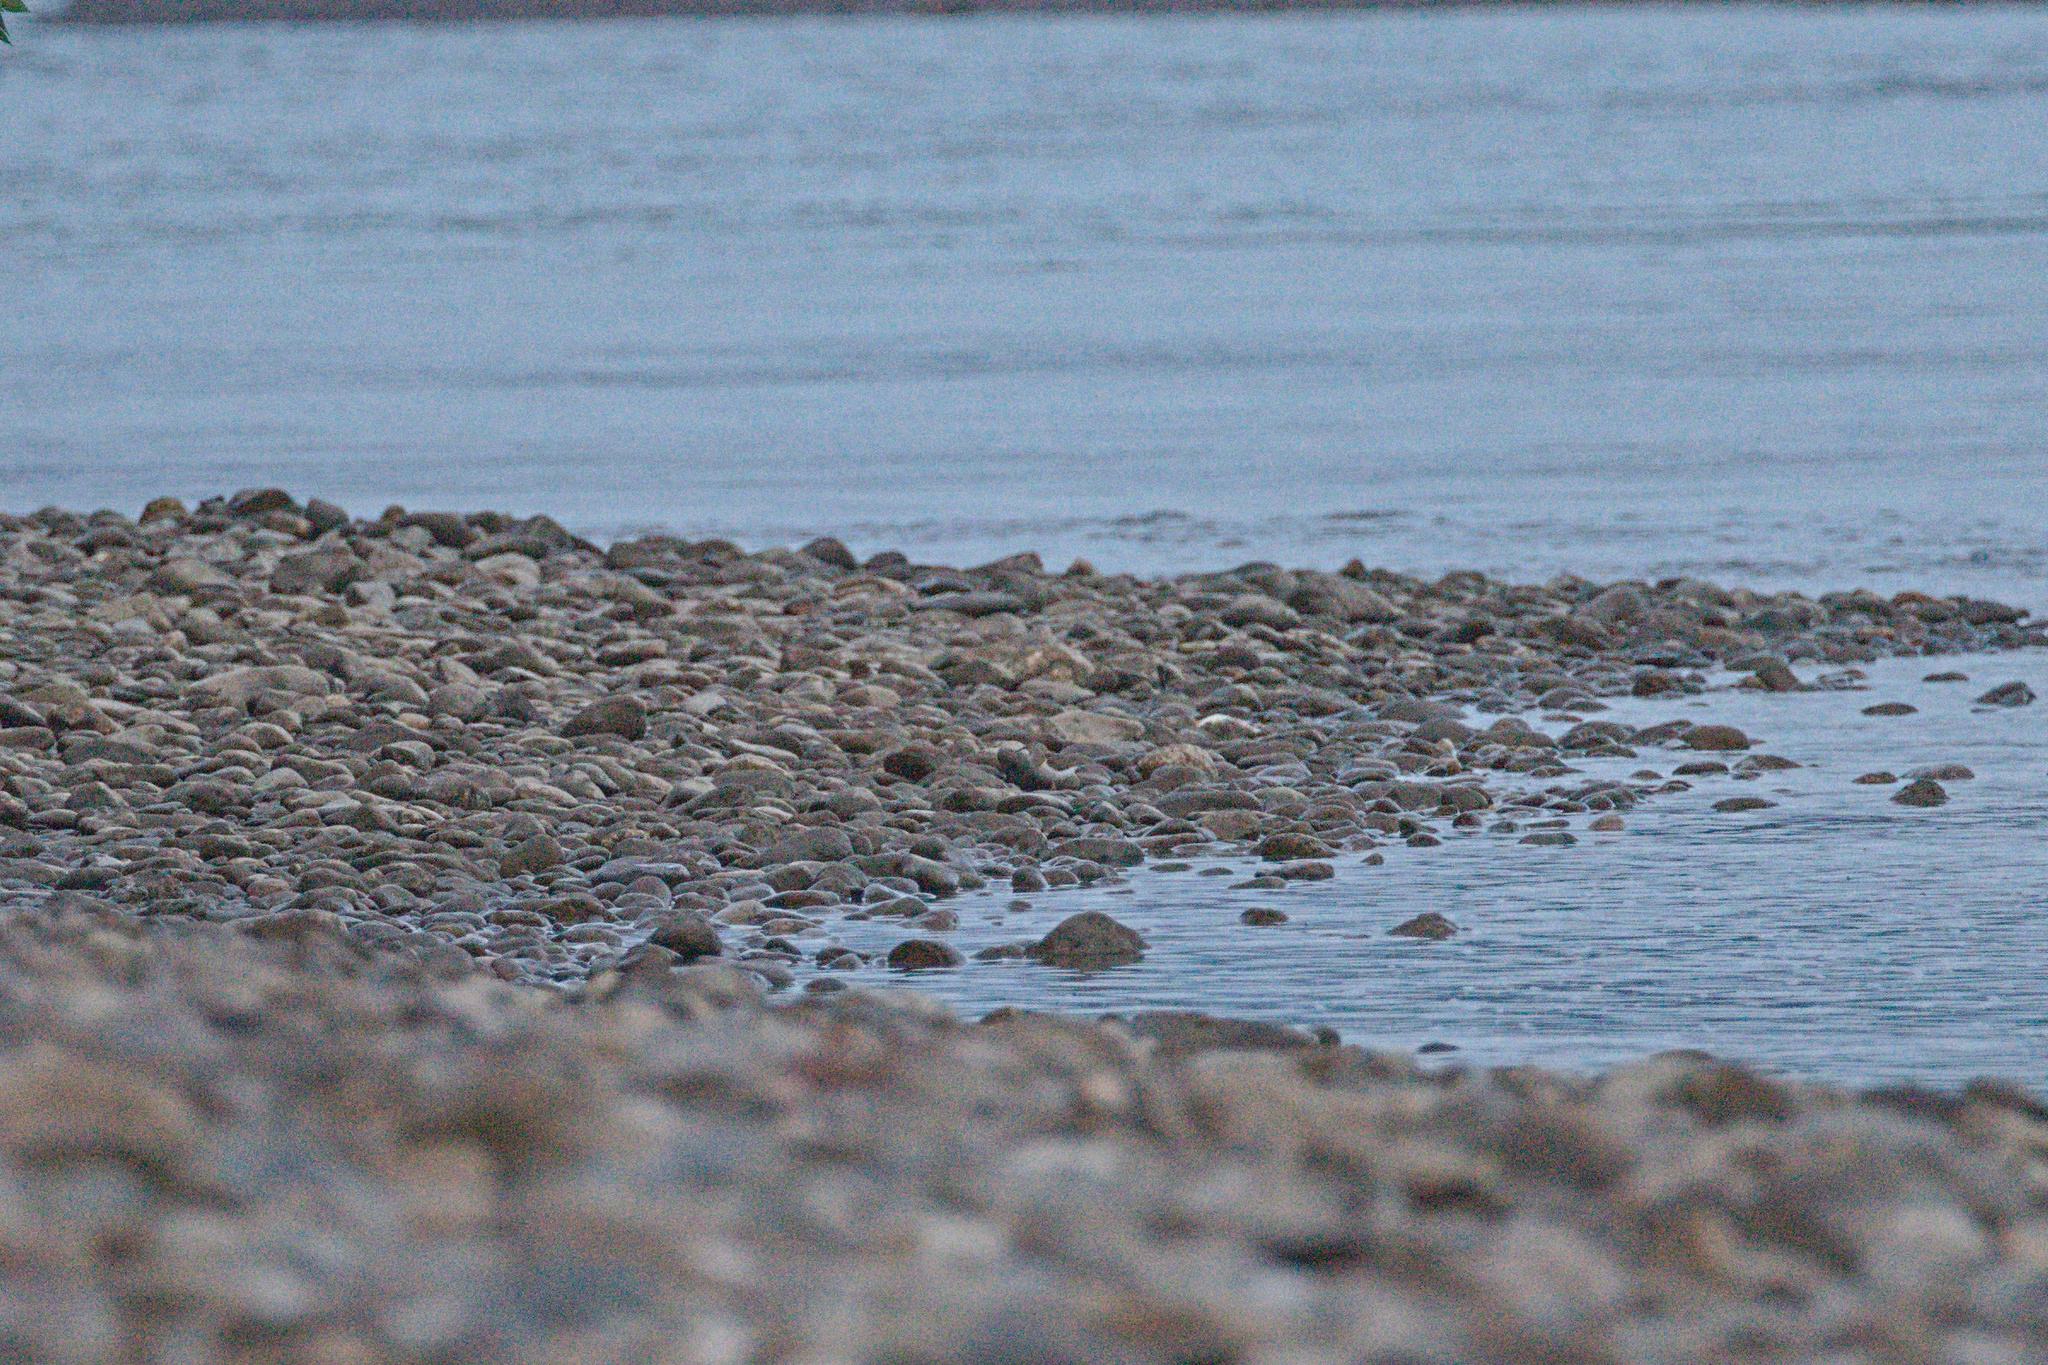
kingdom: Animalia
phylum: Chordata
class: Aves
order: Charadriiformes
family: Scolopacidae
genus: Actitis
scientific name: Actitis hypoleucos
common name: Common sandpiper
